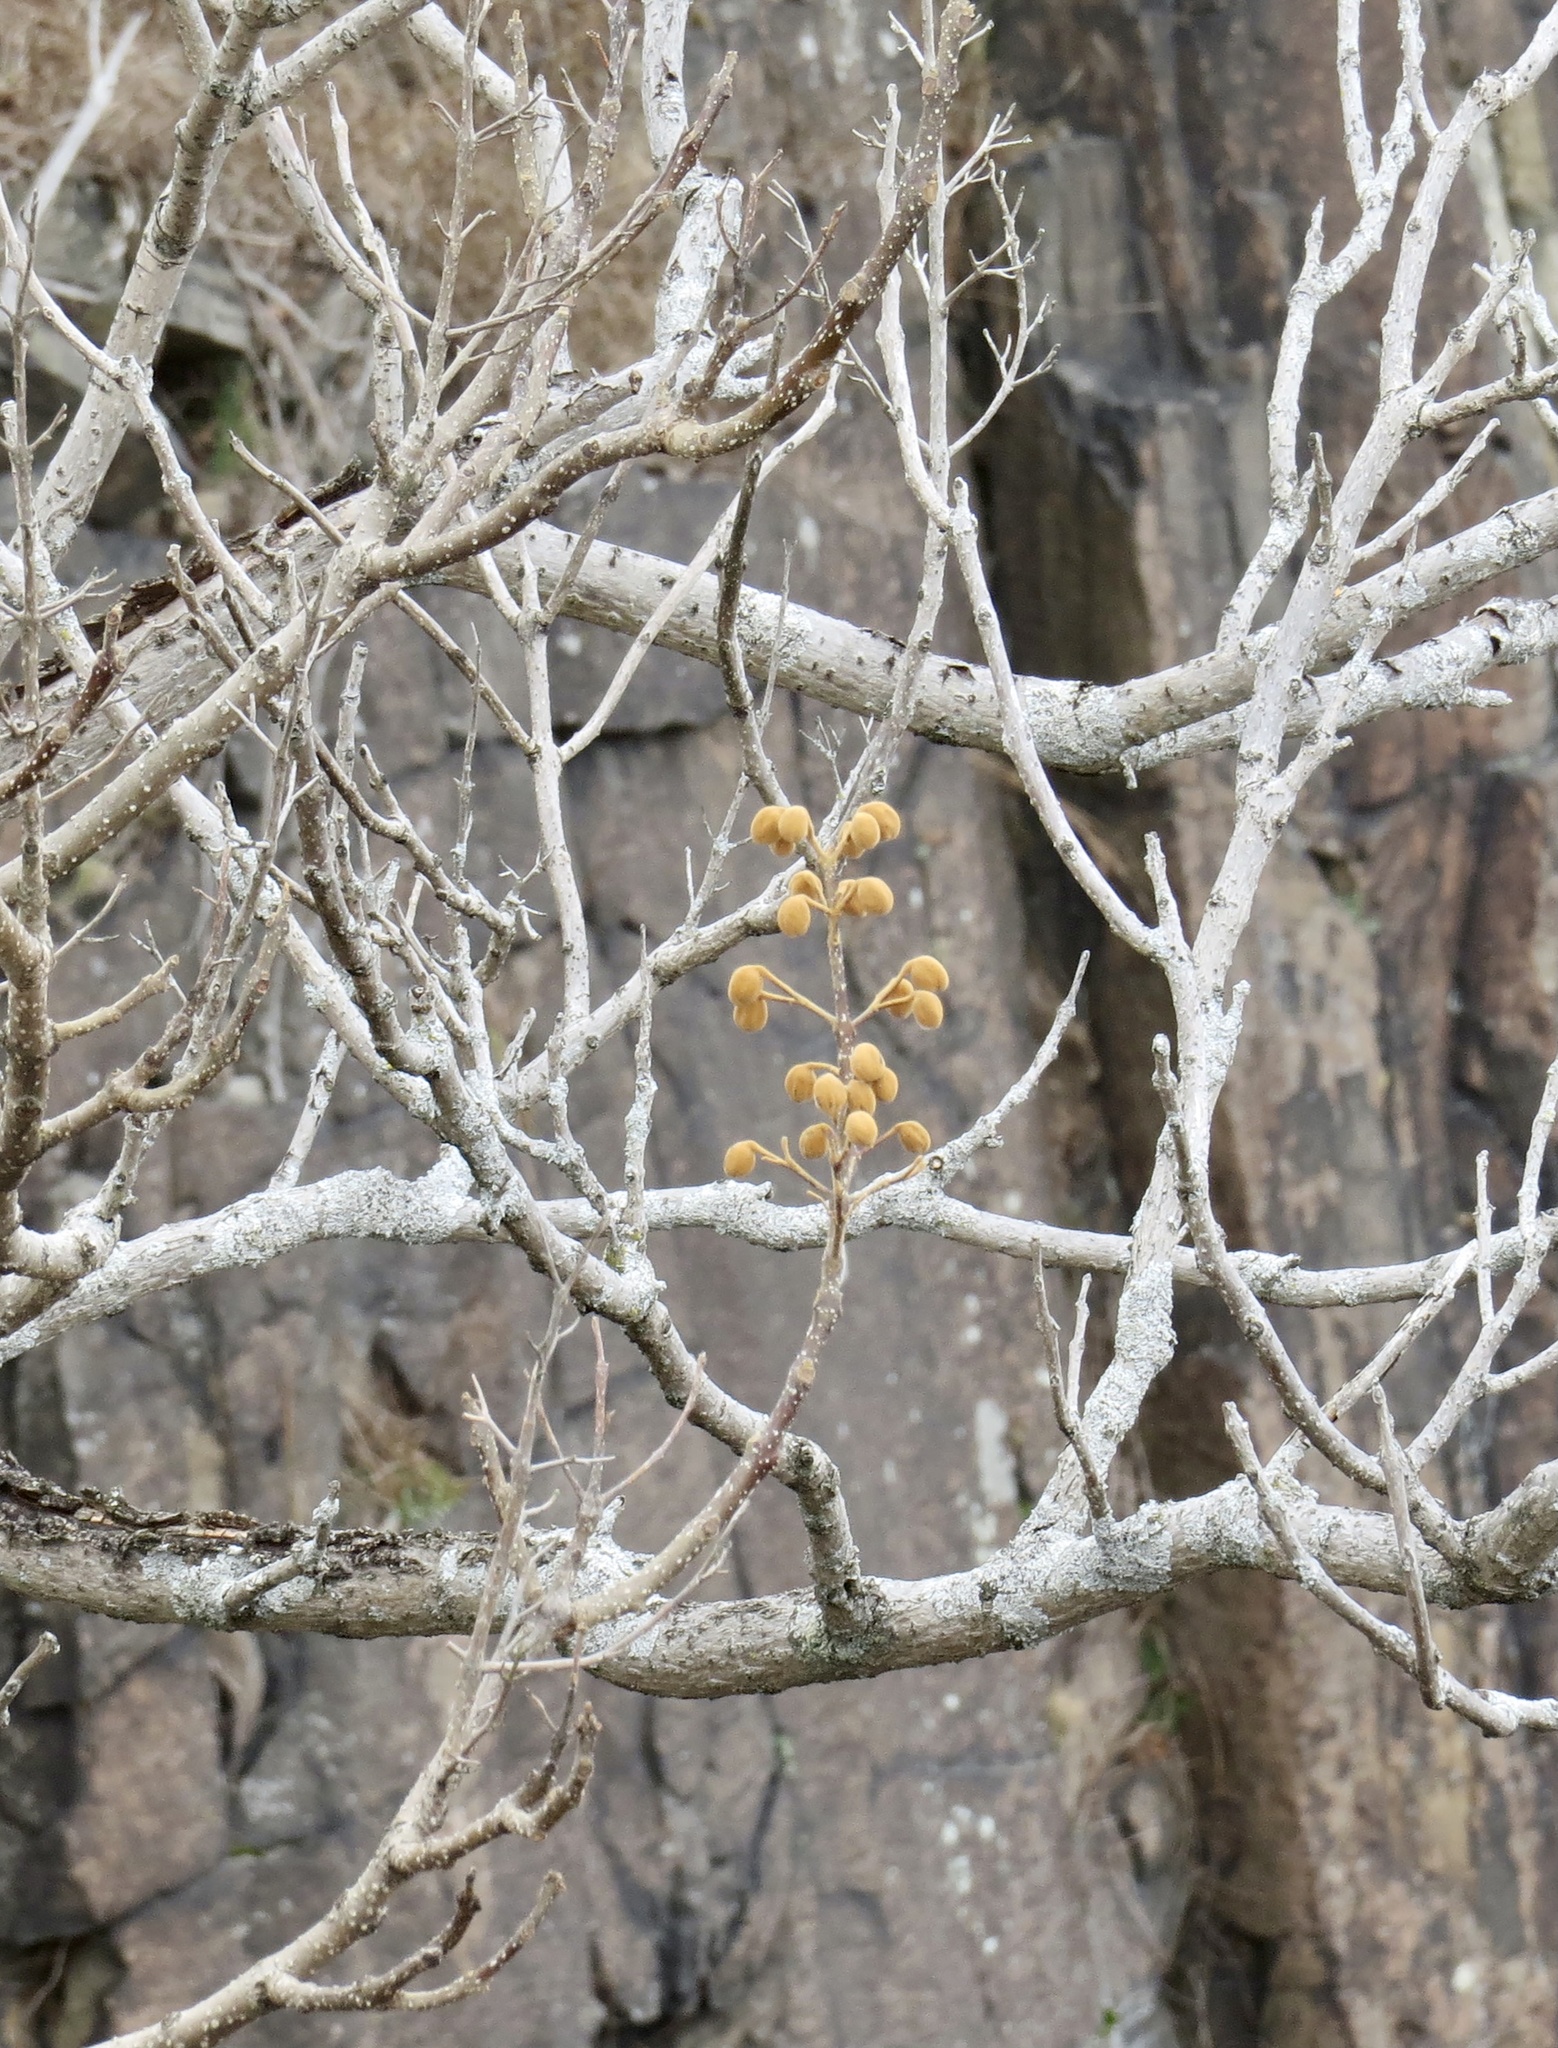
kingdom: Plantae
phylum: Tracheophyta
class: Magnoliopsida
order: Lamiales
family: Paulowniaceae
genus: Paulownia
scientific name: Paulownia tomentosa
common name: Foxglove-tree
